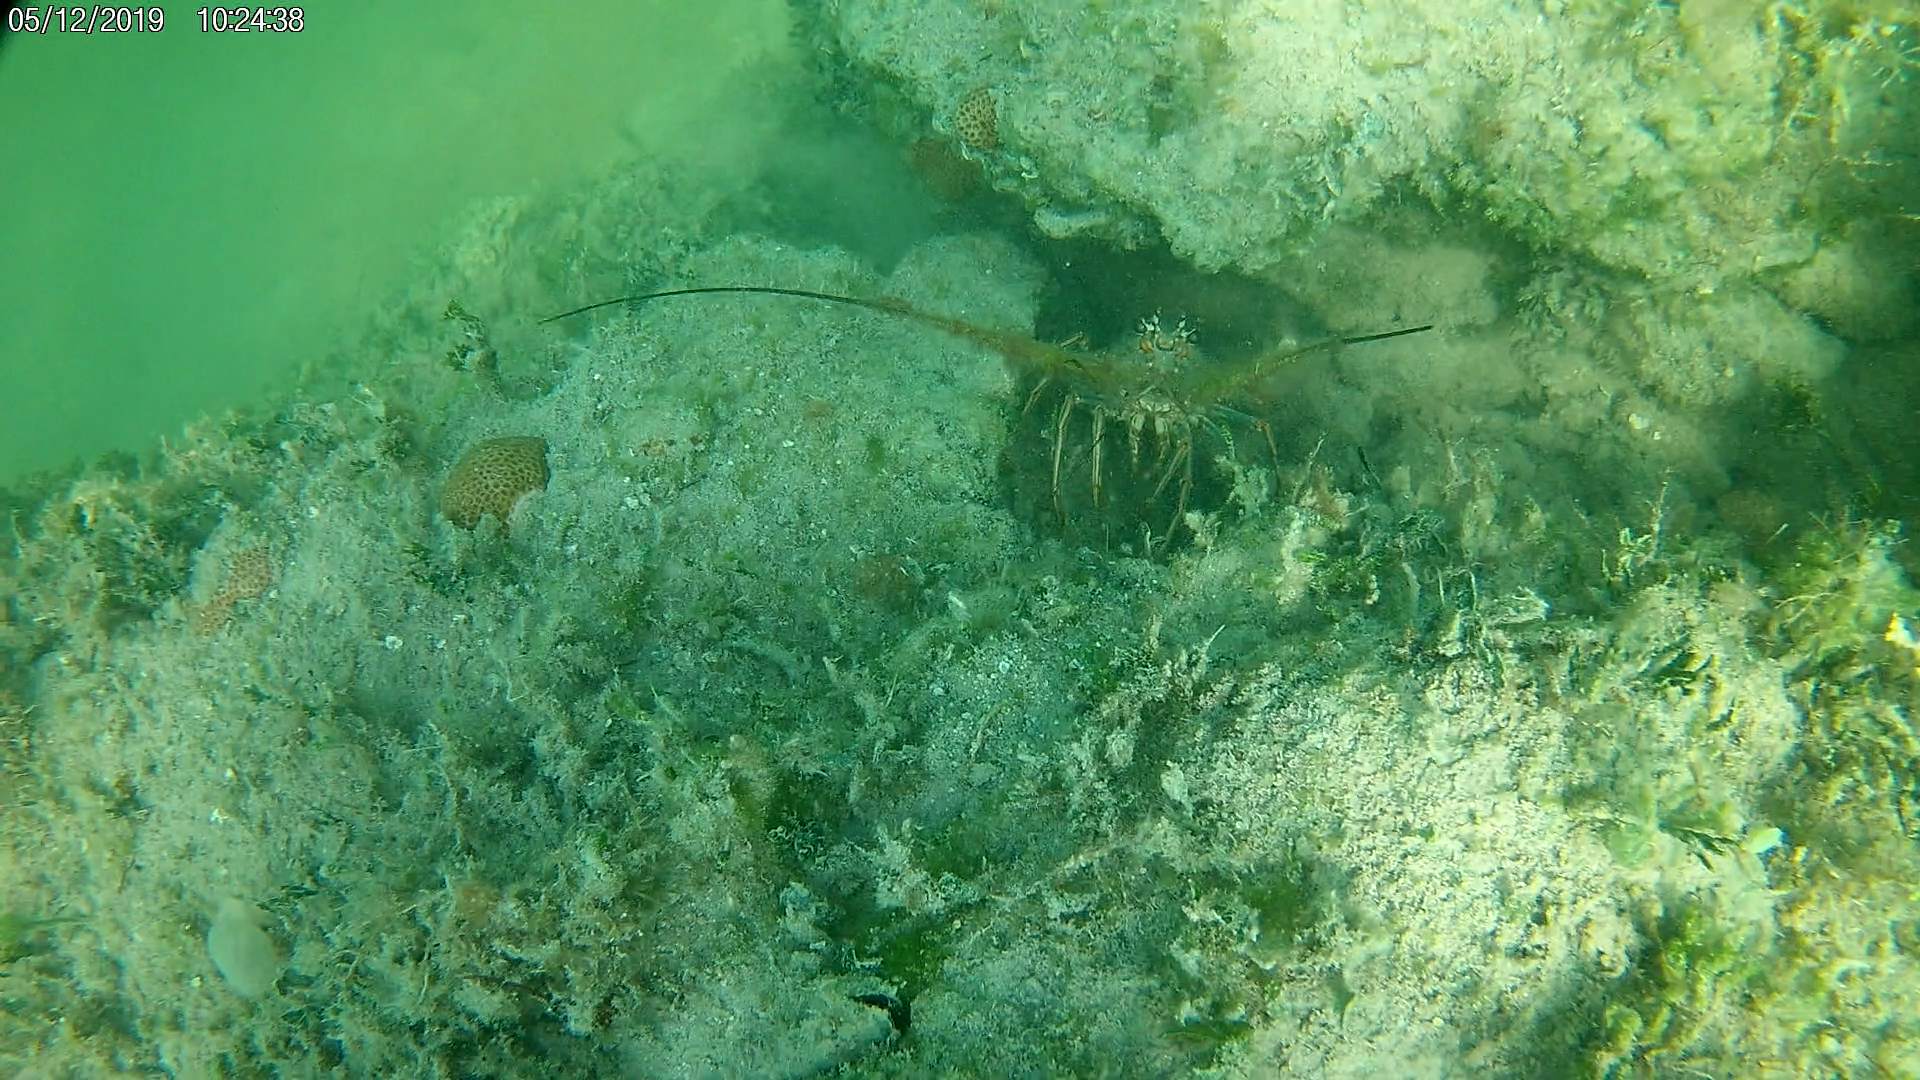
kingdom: Animalia
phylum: Arthropoda
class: Malacostraca
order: Decapoda
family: Palinuridae
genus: Panulirus
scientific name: Panulirus argus
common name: Caribbean spiny lobster
